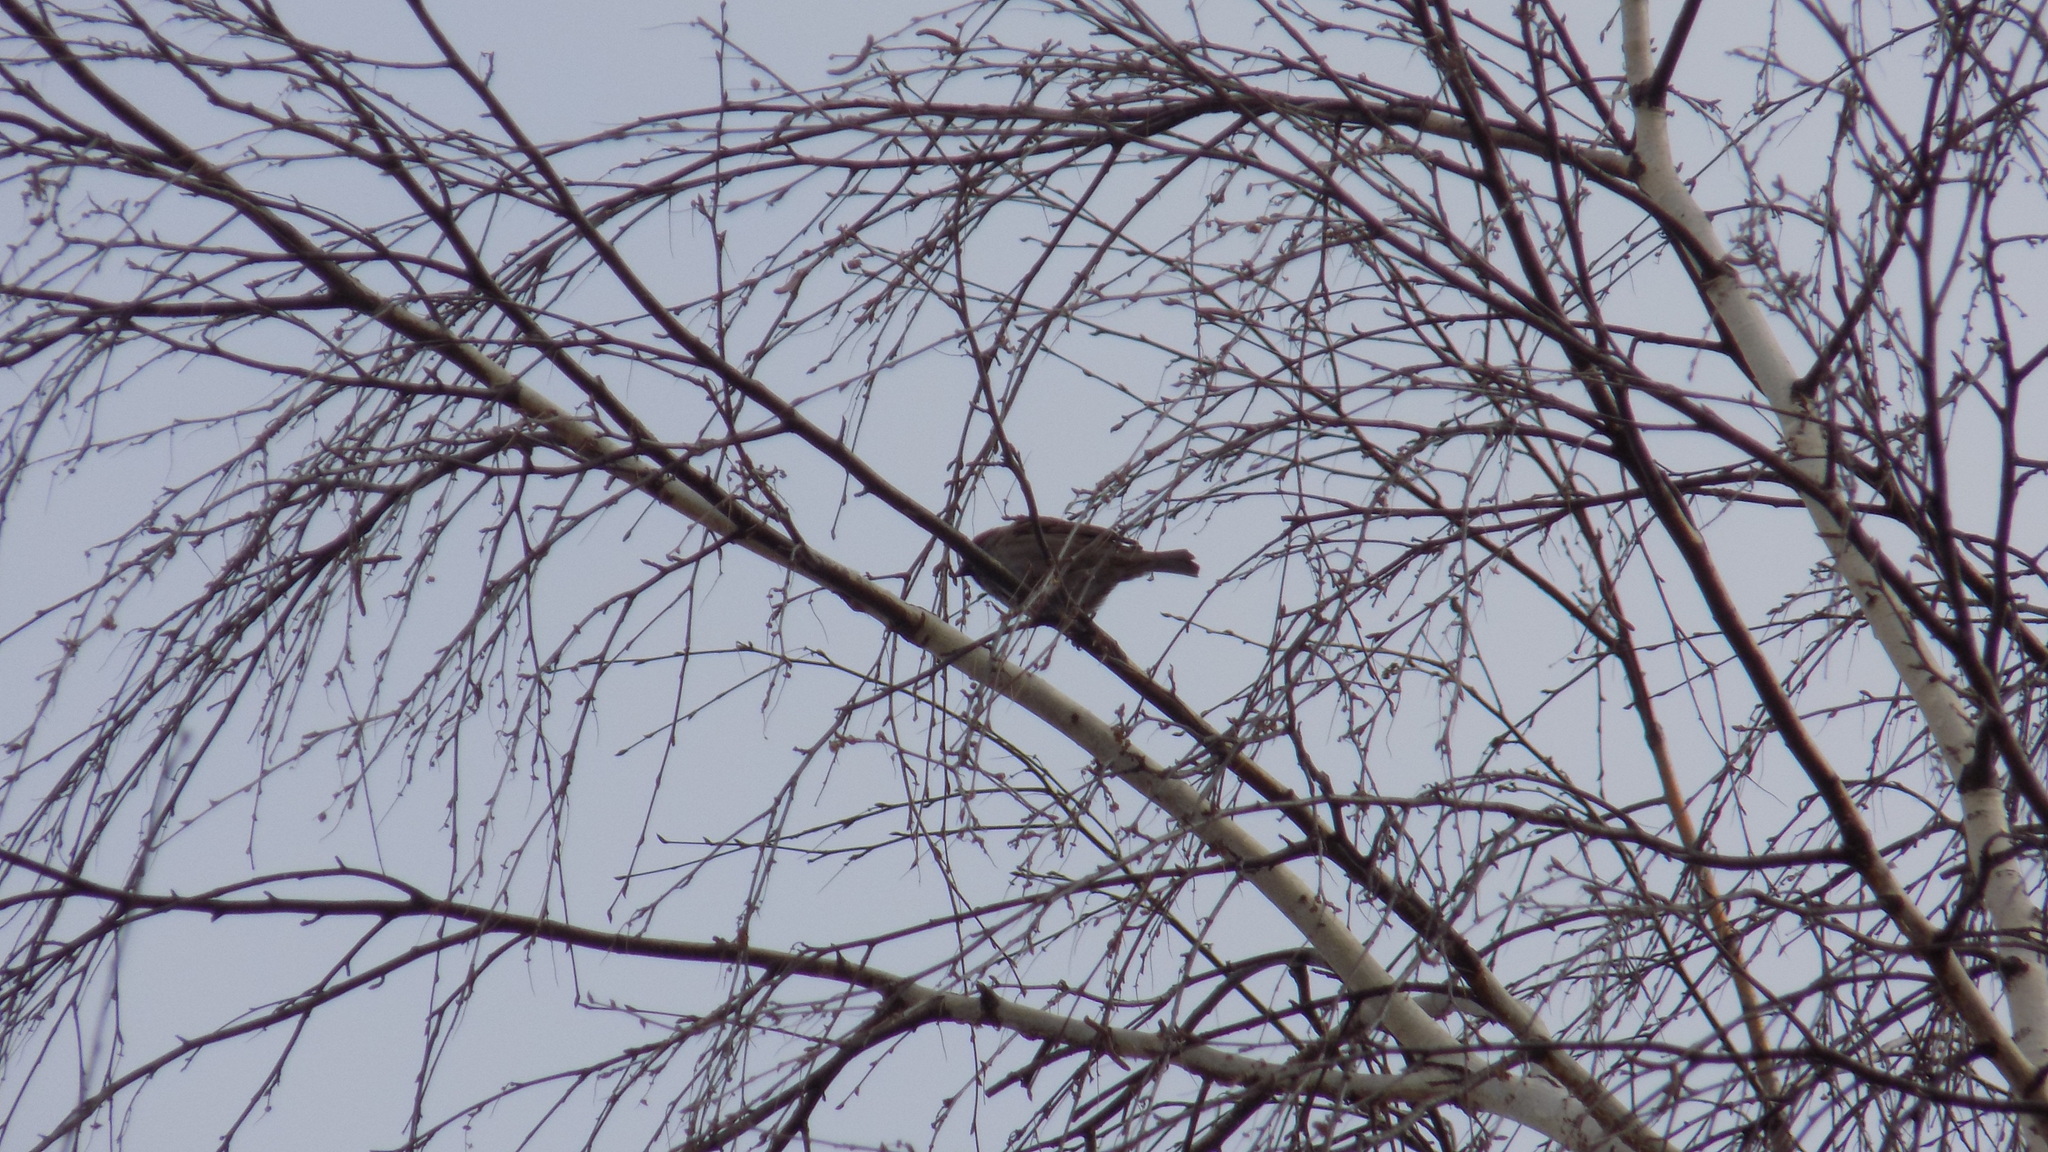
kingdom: Animalia
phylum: Chordata
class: Aves
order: Passeriformes
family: Passeridae
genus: Passer
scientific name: Passer montanus
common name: Eurasian tree sparrow
